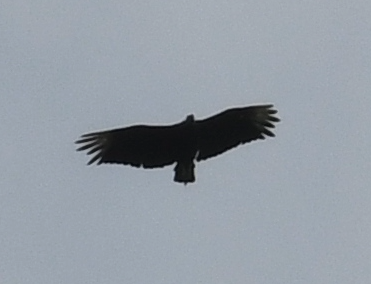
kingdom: Animalia
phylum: Chordata
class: Aves
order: Accipitriformes
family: Cathartidae
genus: Coragyps
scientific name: Coragyps atratus
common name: Black vulture
